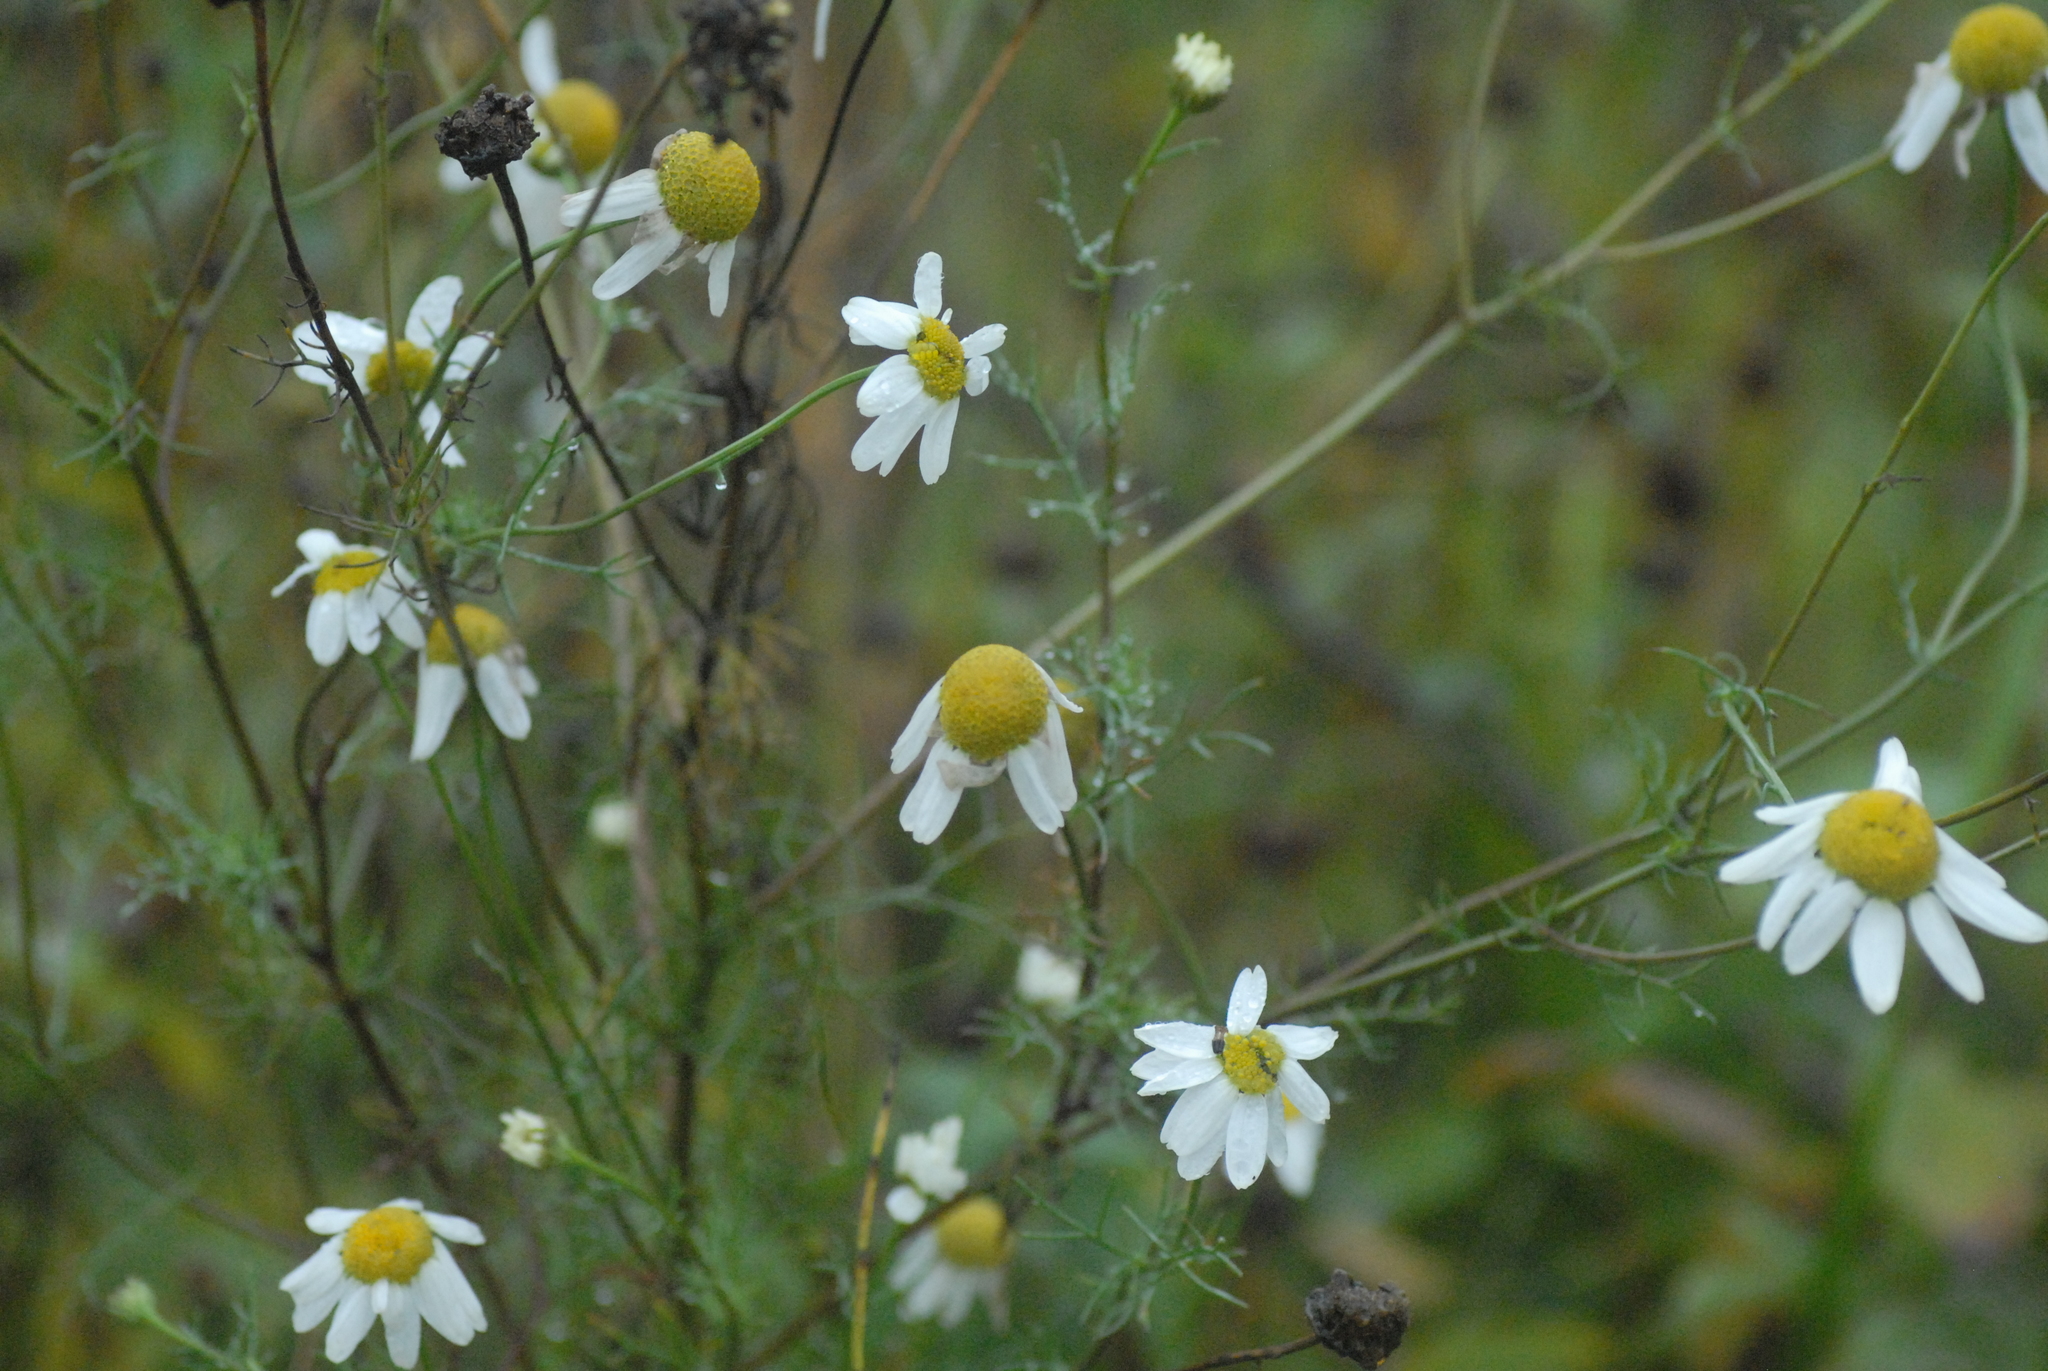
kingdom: Plantae
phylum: Tracheophyta
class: Magnoliopsida
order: Asterales
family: Asteraceae
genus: Tripleurospermum
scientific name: Tripleurospermum inodorum
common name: Scentless mayweed
